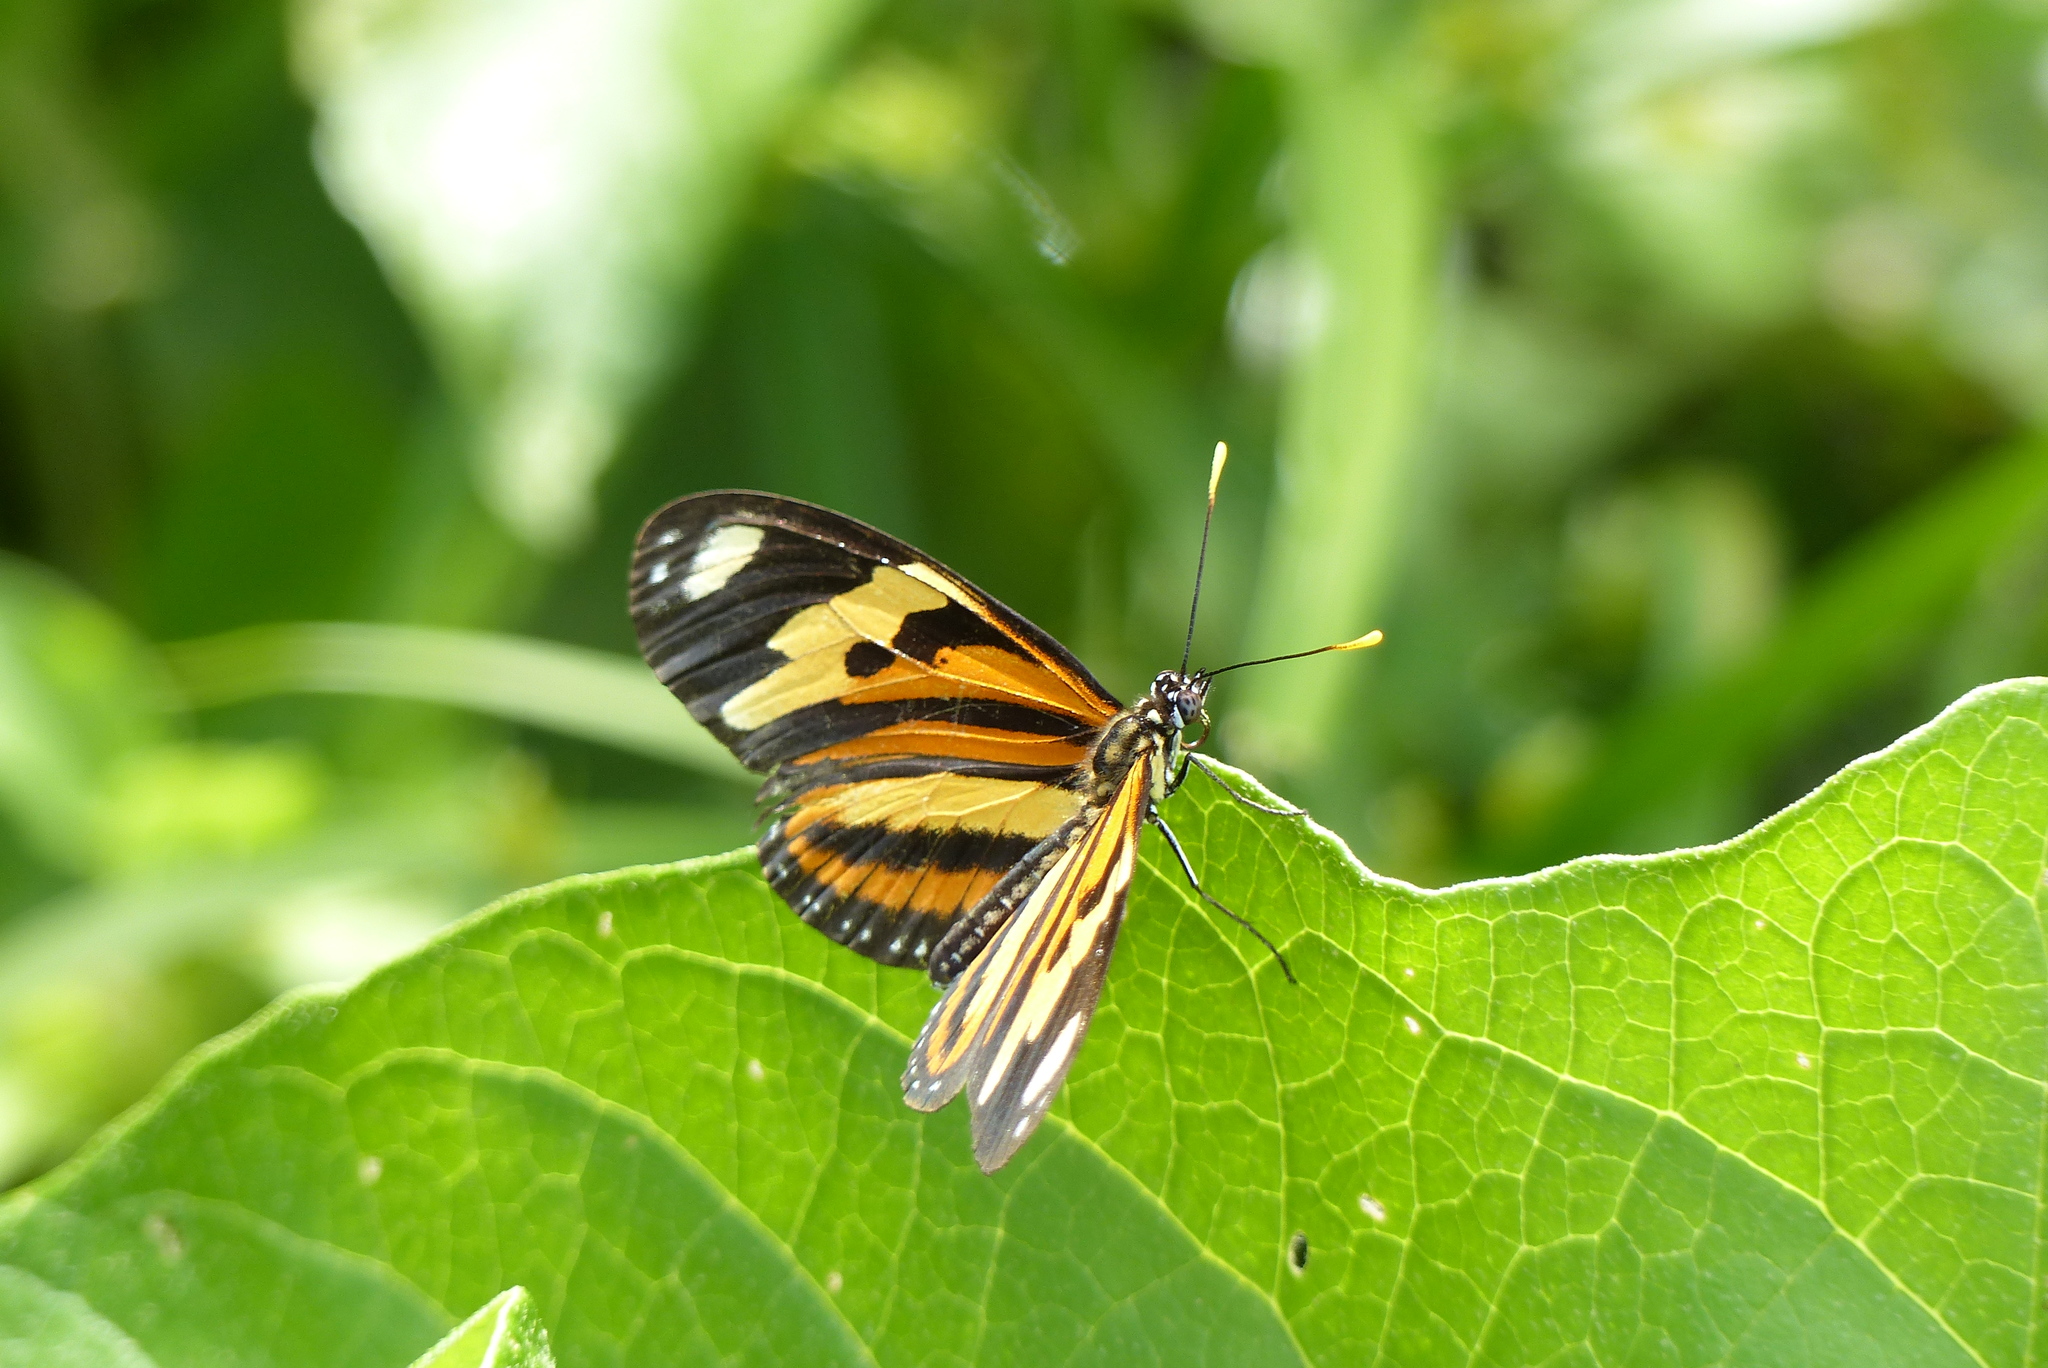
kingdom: Animalia
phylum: Arthropoda
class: Insecta
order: Lepidoptera
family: Nymphalidae
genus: Eueides
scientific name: Eueides isabella
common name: Isabella's longwing
